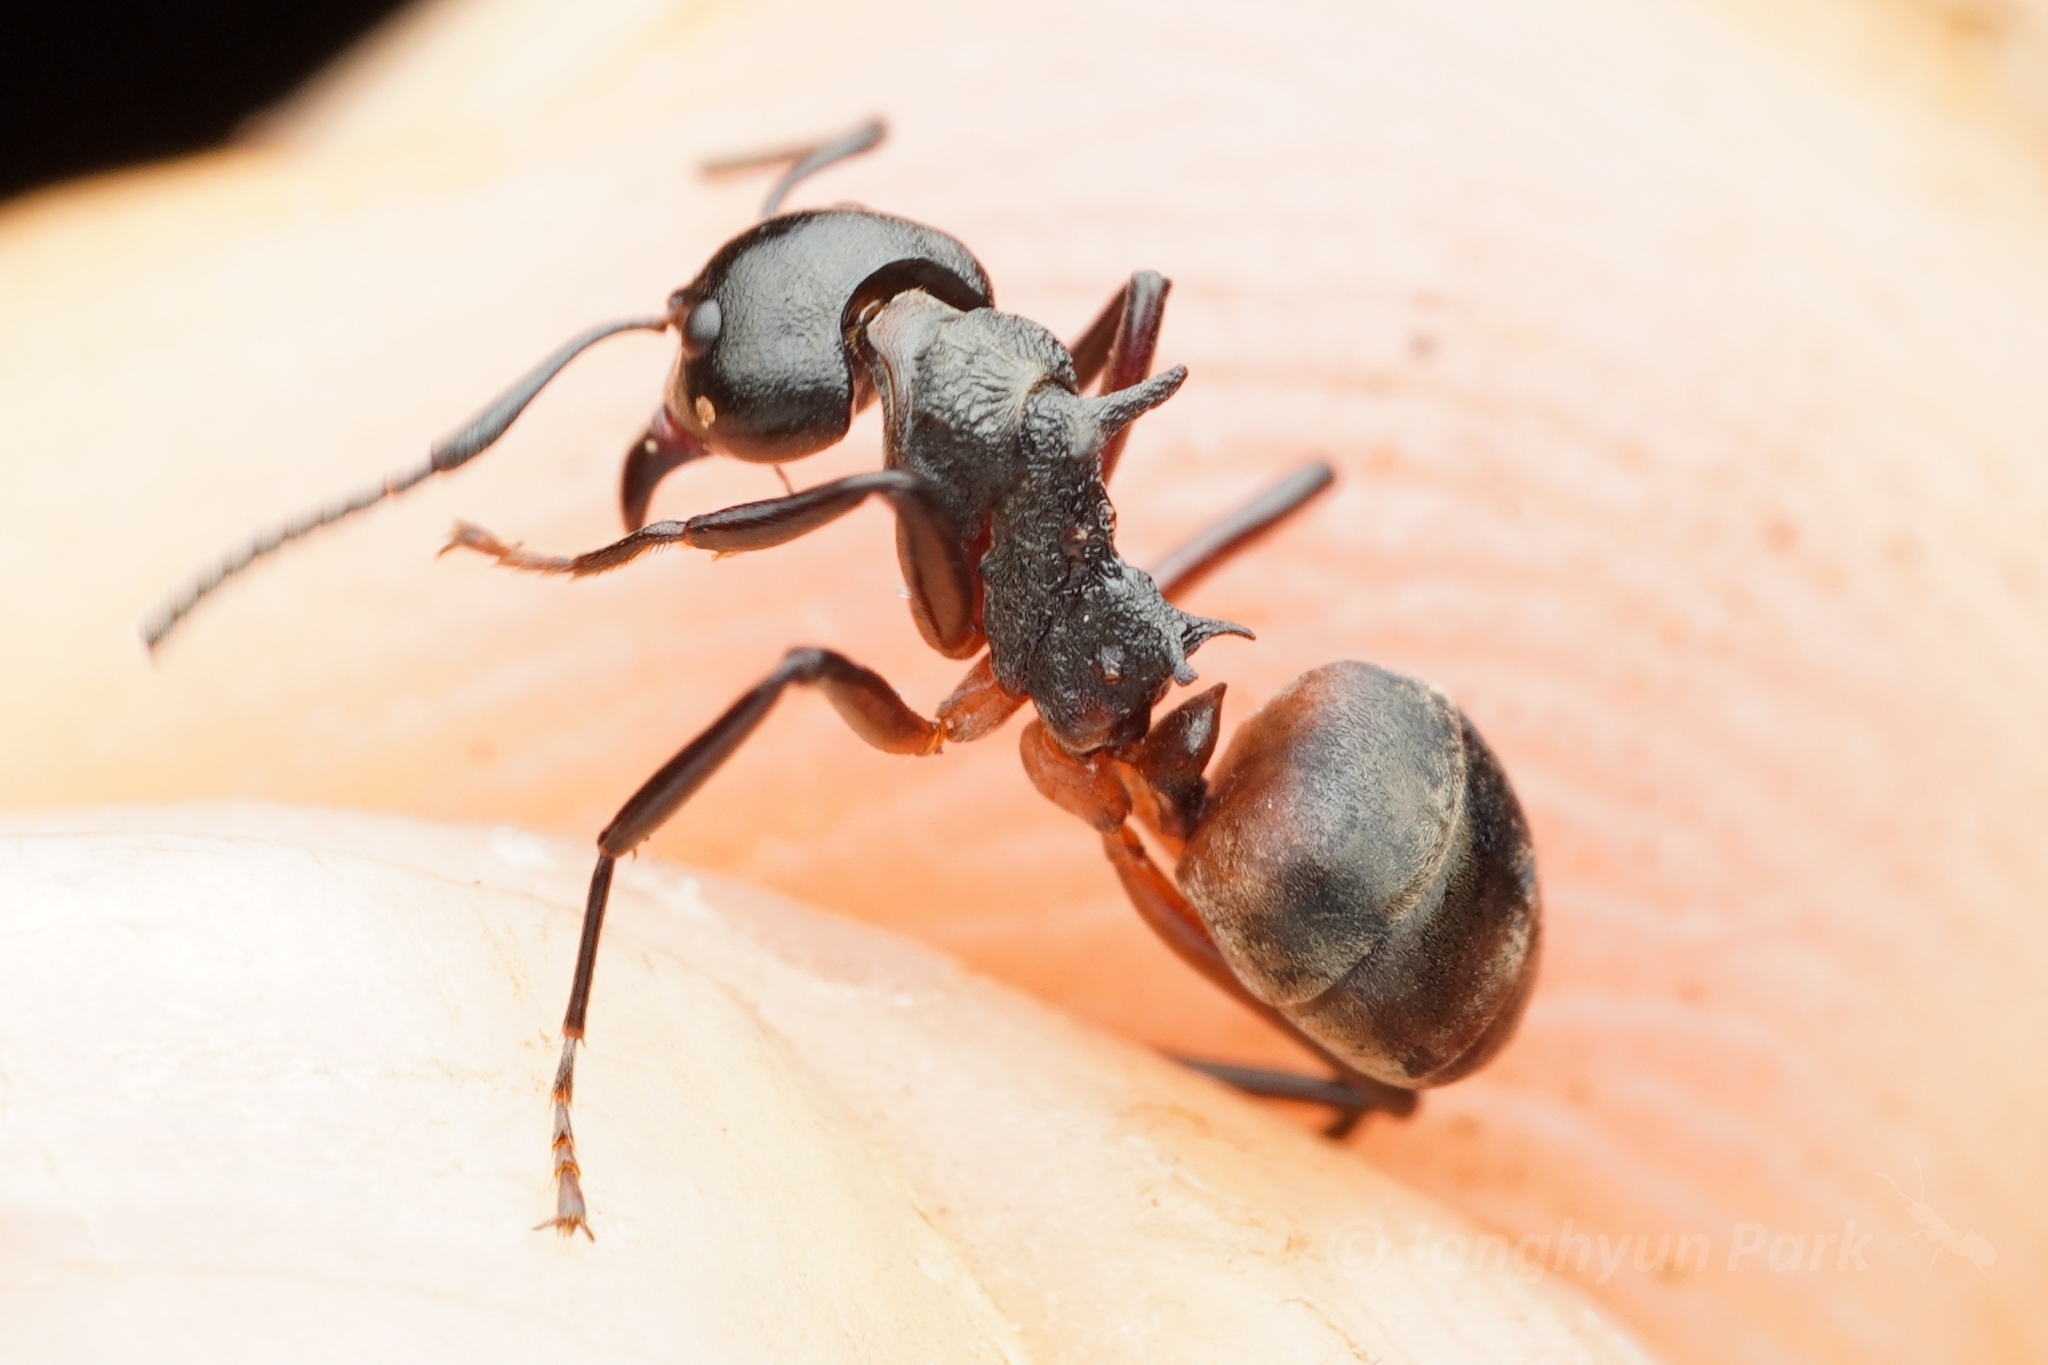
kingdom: Animalia
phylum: Arthropoda
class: Insecta
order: Hymenoptera
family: Formicidae
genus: Dolichoderus
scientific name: Dolichoderus cuspidatus
